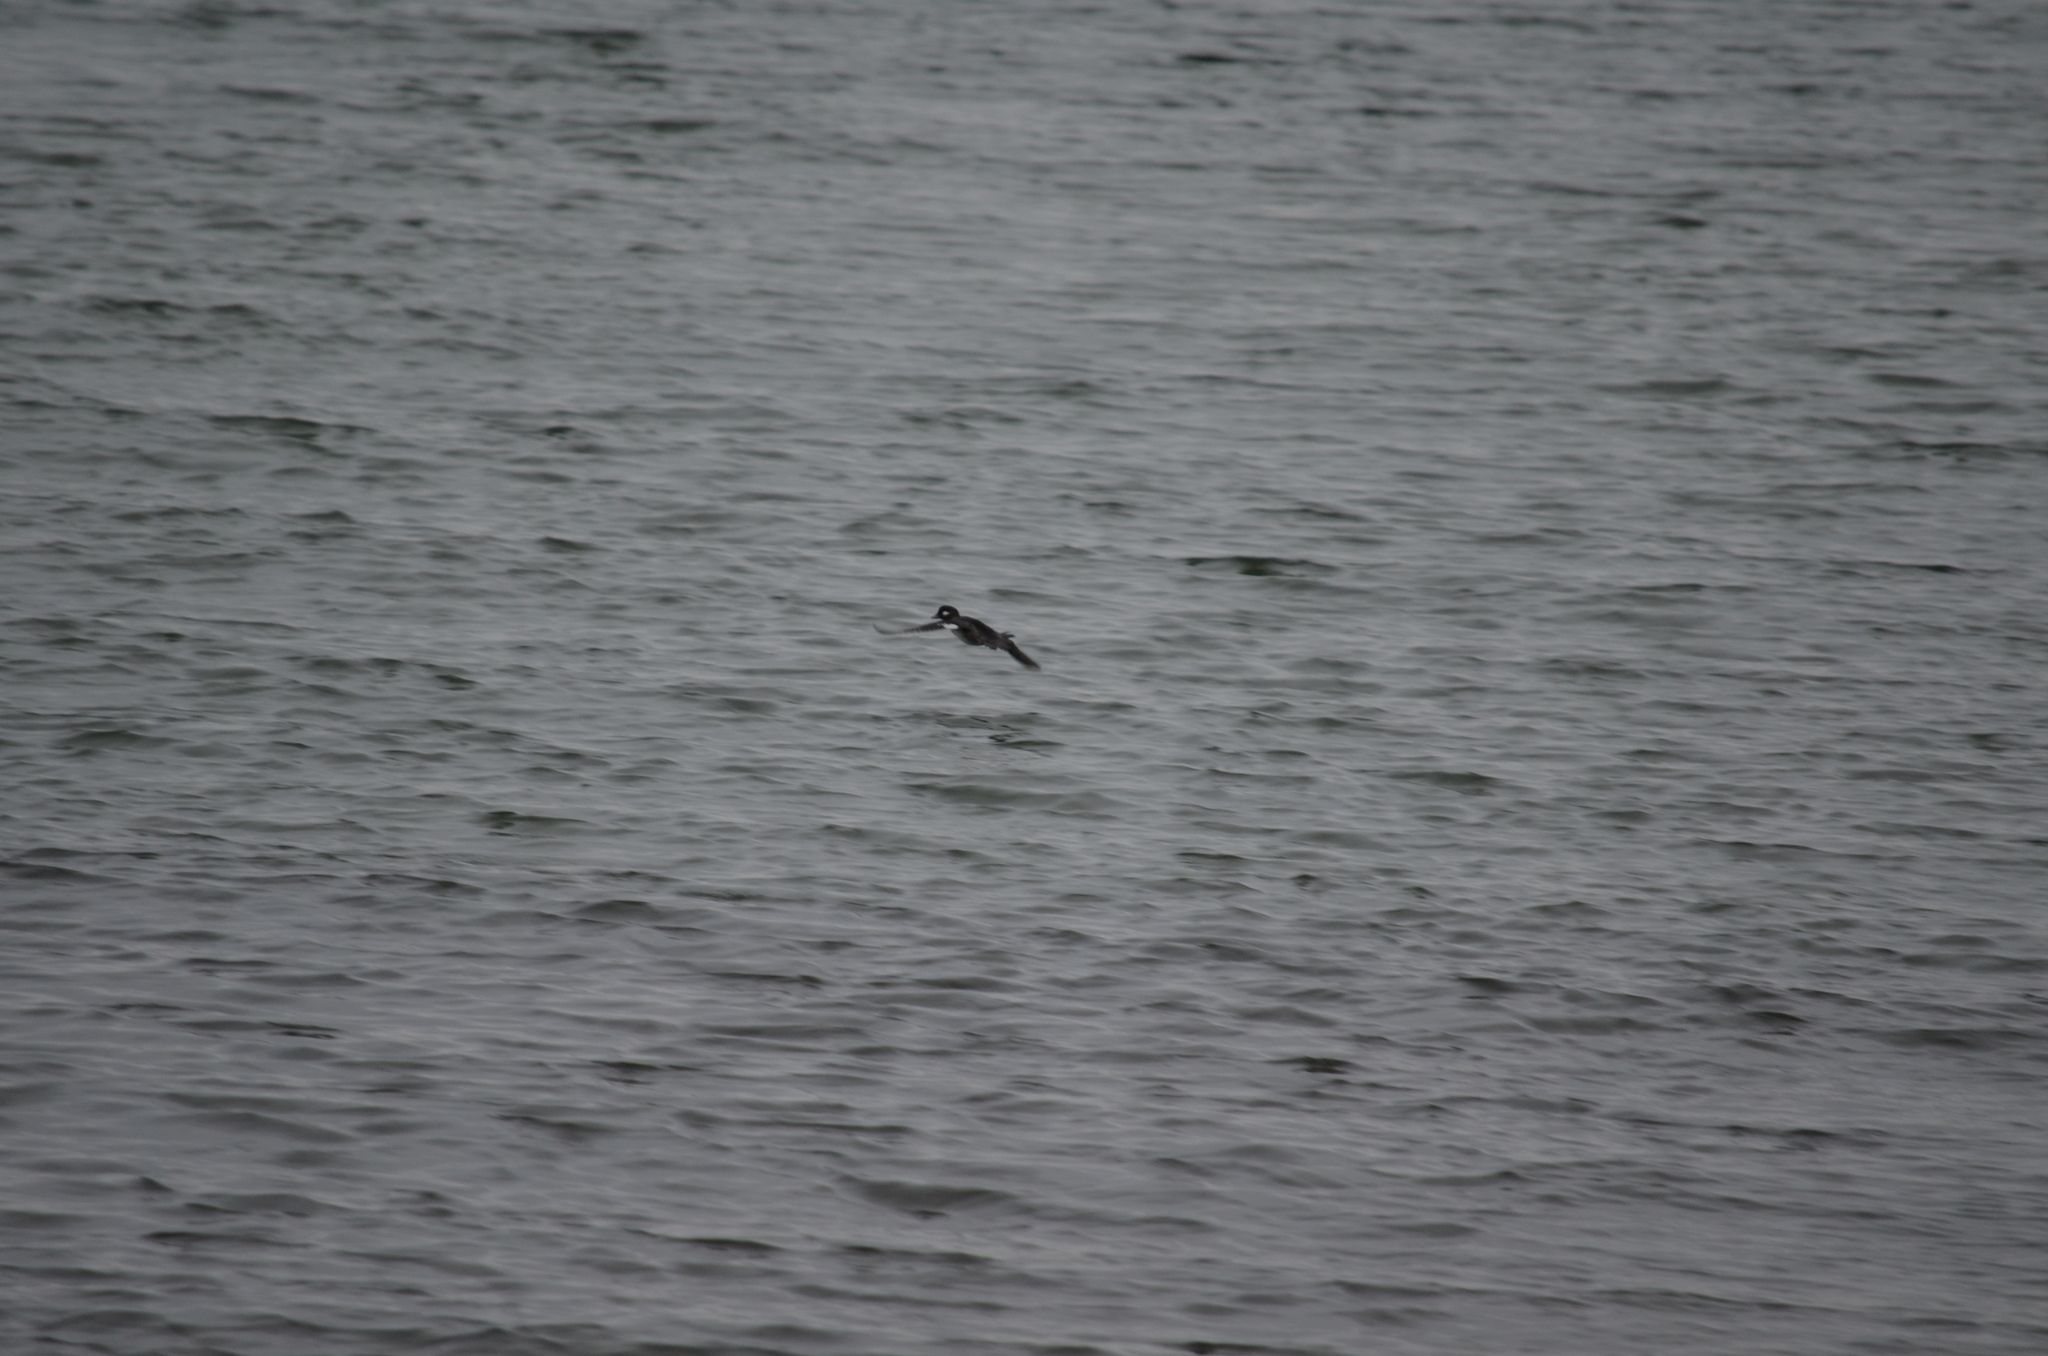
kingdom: Animalia
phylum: Chordata
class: Aves
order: Anseriformes
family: Anatidae
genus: Bucephala
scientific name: Bucephala albeola
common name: Bufflehead
